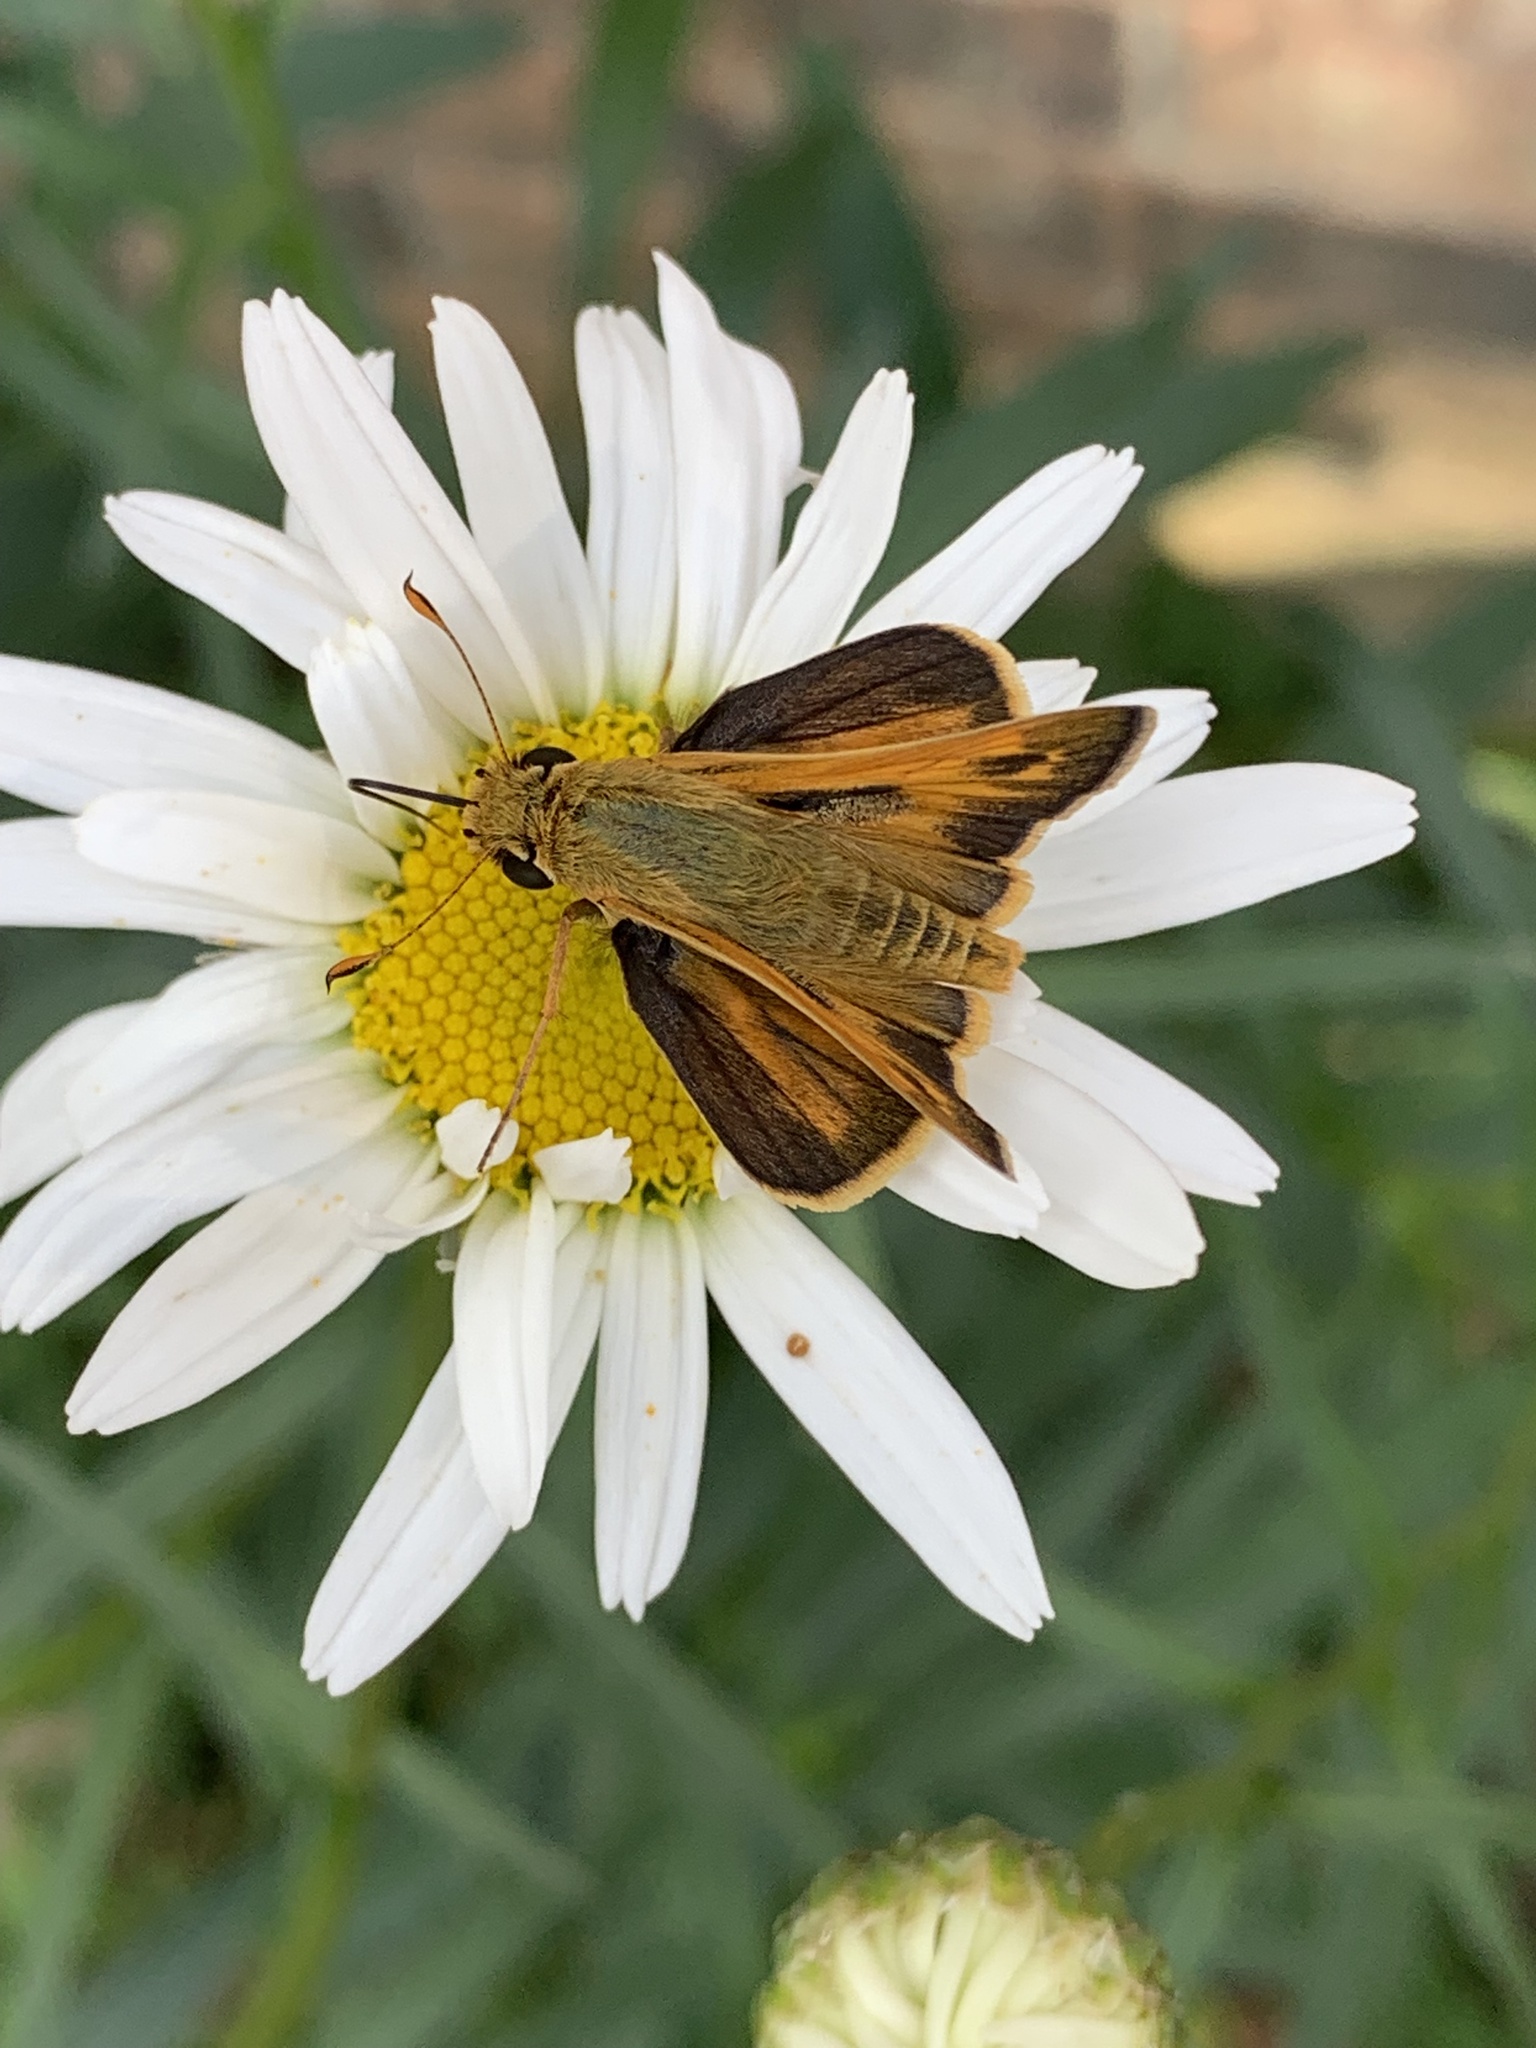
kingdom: Animalia
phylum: Arthropoda
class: Insecta
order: Lepidoptera
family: Hesperiidae
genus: Atalopedes
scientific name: Atalopedes
